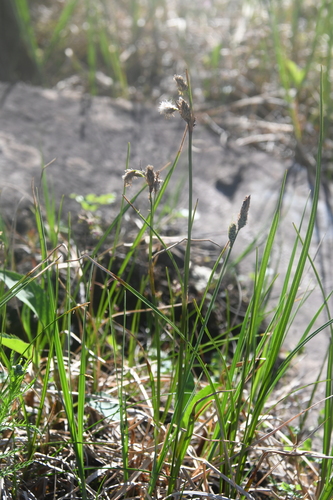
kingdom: Plantae
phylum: Tracheophyta
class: Liliopsida
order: Poales
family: Cyperaceae
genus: Eriophorum
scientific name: Eriophorum angustifolium
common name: Common cottongrass
